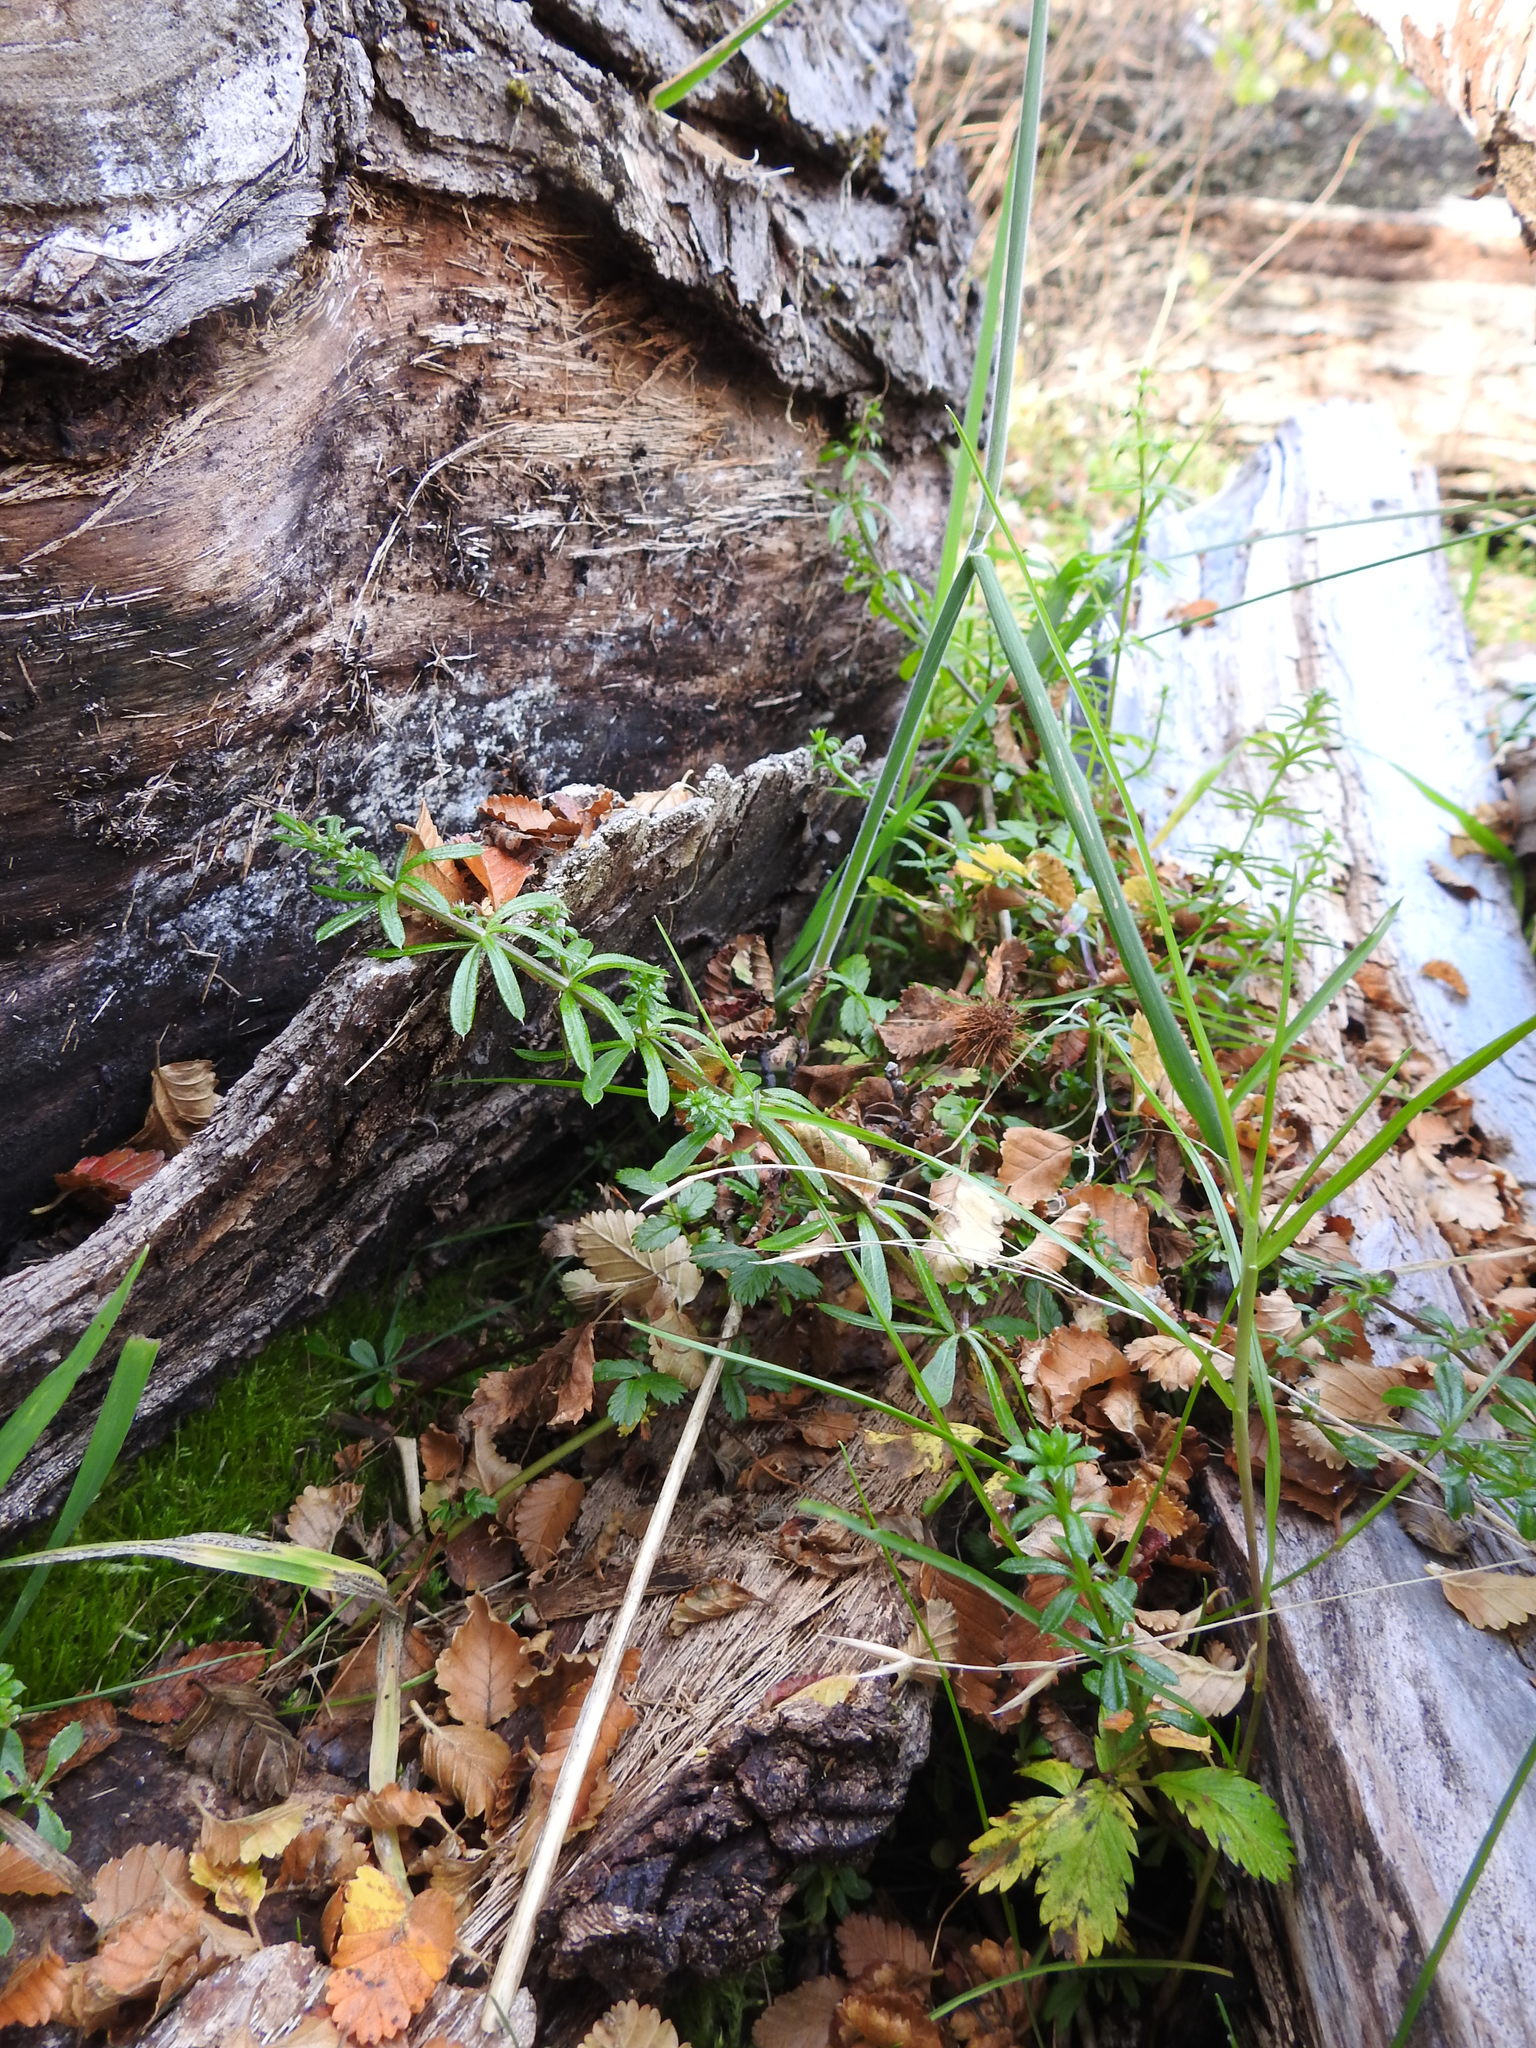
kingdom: Plantae
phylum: Tracheophyta
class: Magnoliopsida
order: Gentianales
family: Rubiaceae
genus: Galium
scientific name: Galium aparine
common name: Cleavers
